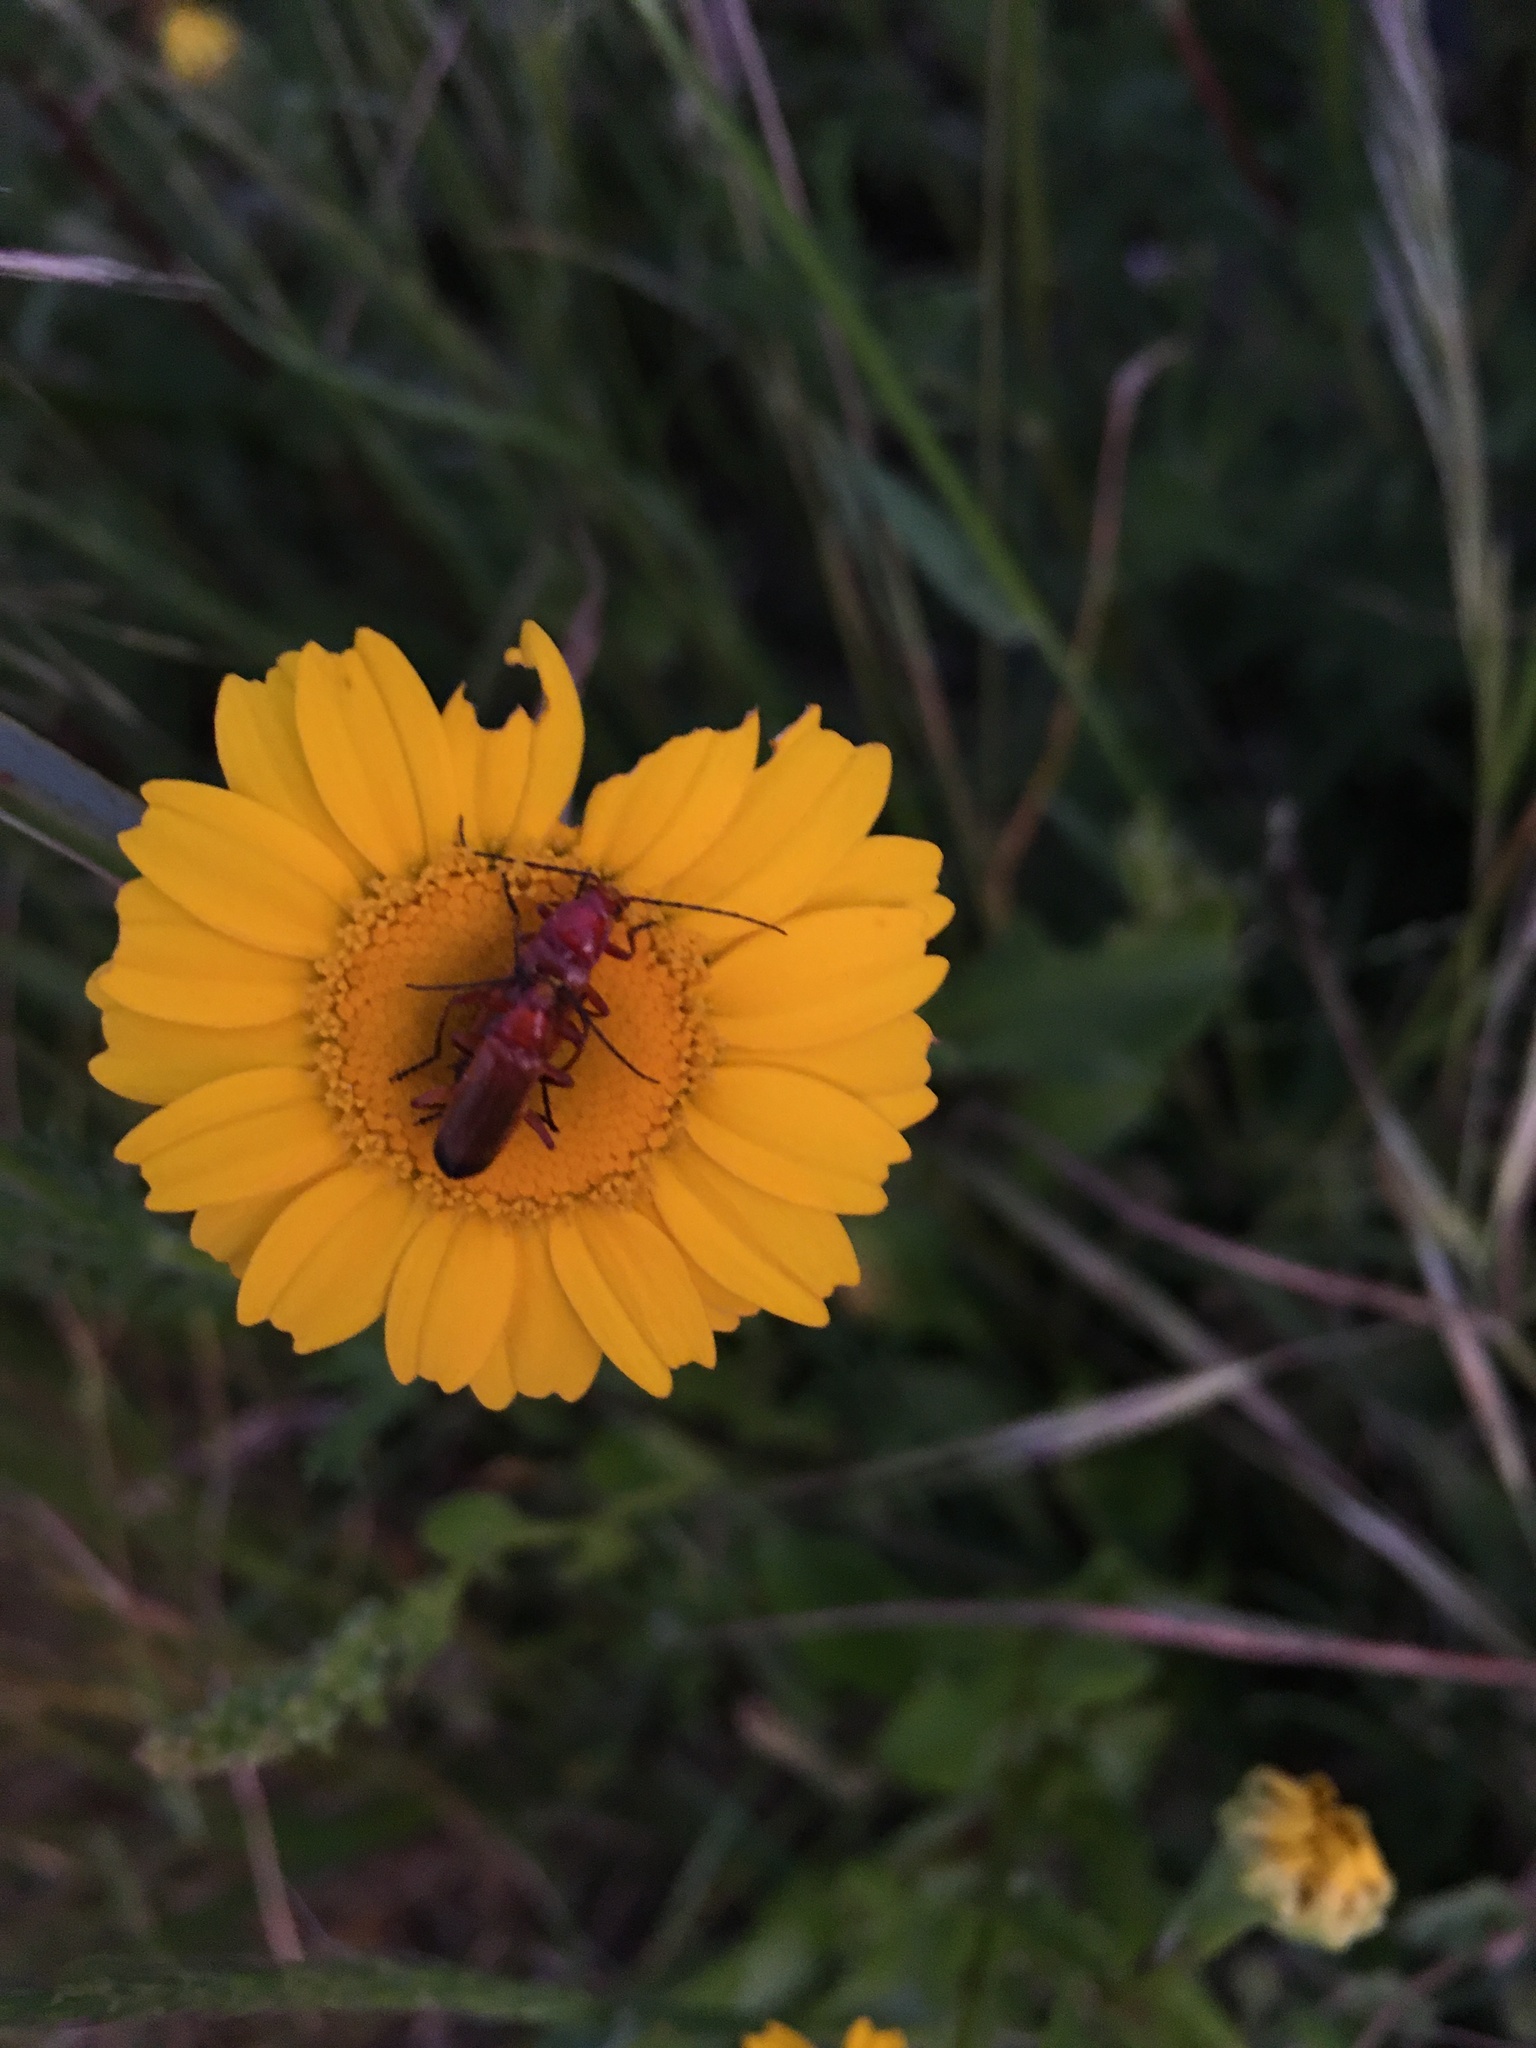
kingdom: Animalia
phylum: Arthropoda
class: Insecta
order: Coleoptera
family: Cantharidae
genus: Rhagonycha
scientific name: Rhagonycha fulva
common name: Common red soldier beetle
